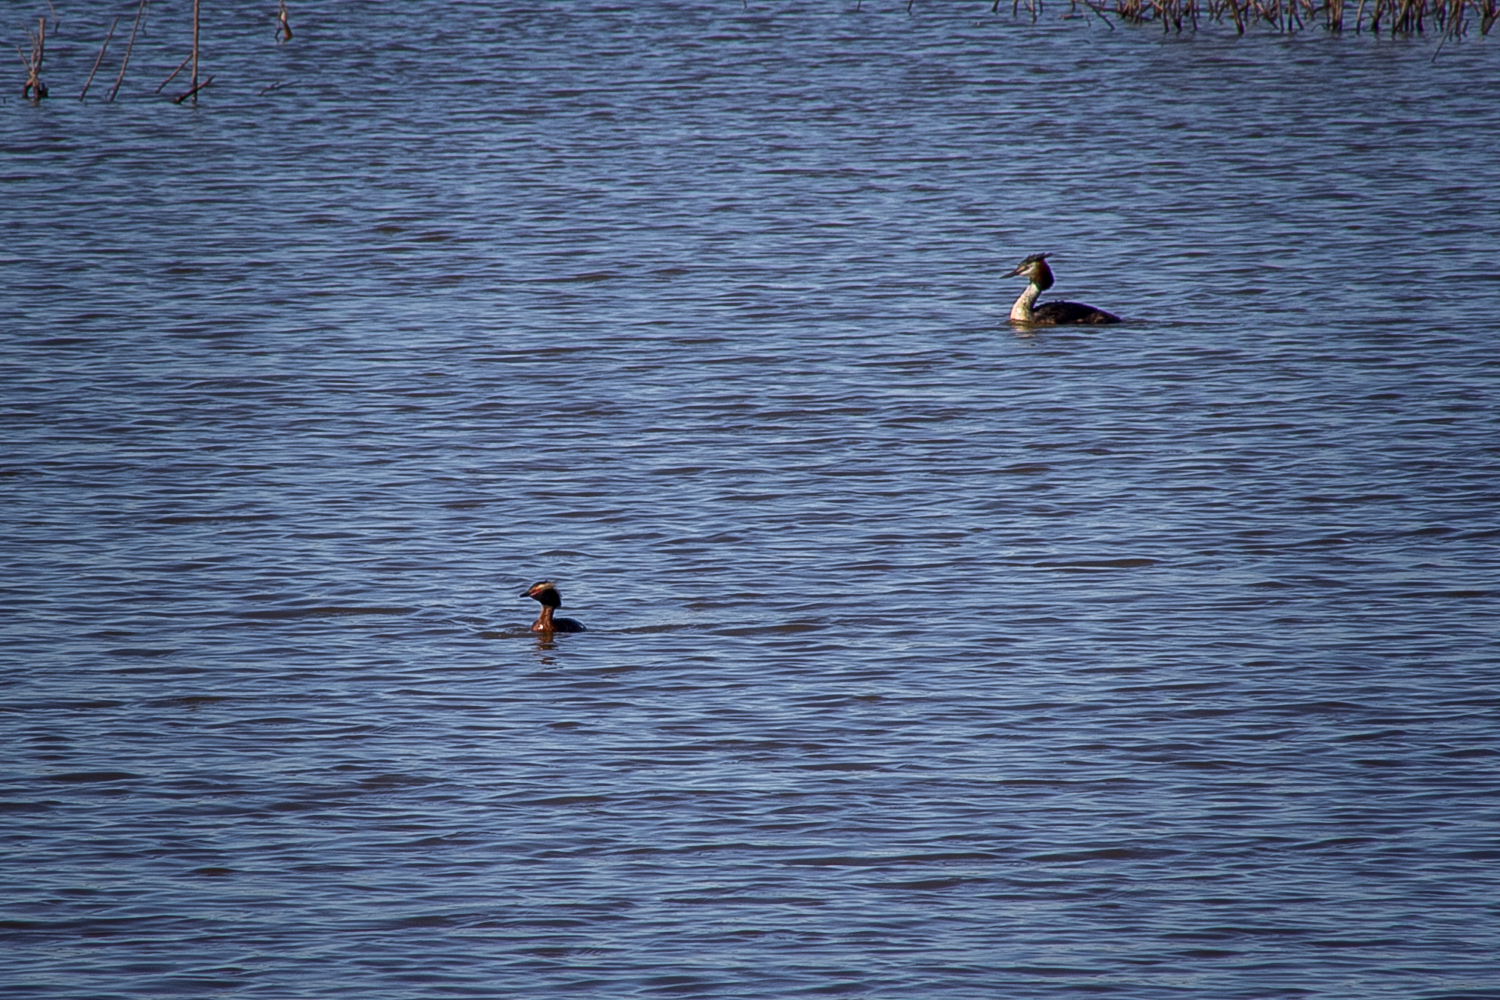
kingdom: Animalia
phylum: Chordata
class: Aves
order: Podicipediformes
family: Podicipedidae
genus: Podiceps
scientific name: Podiceps cristatus
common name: Great crested grebe
